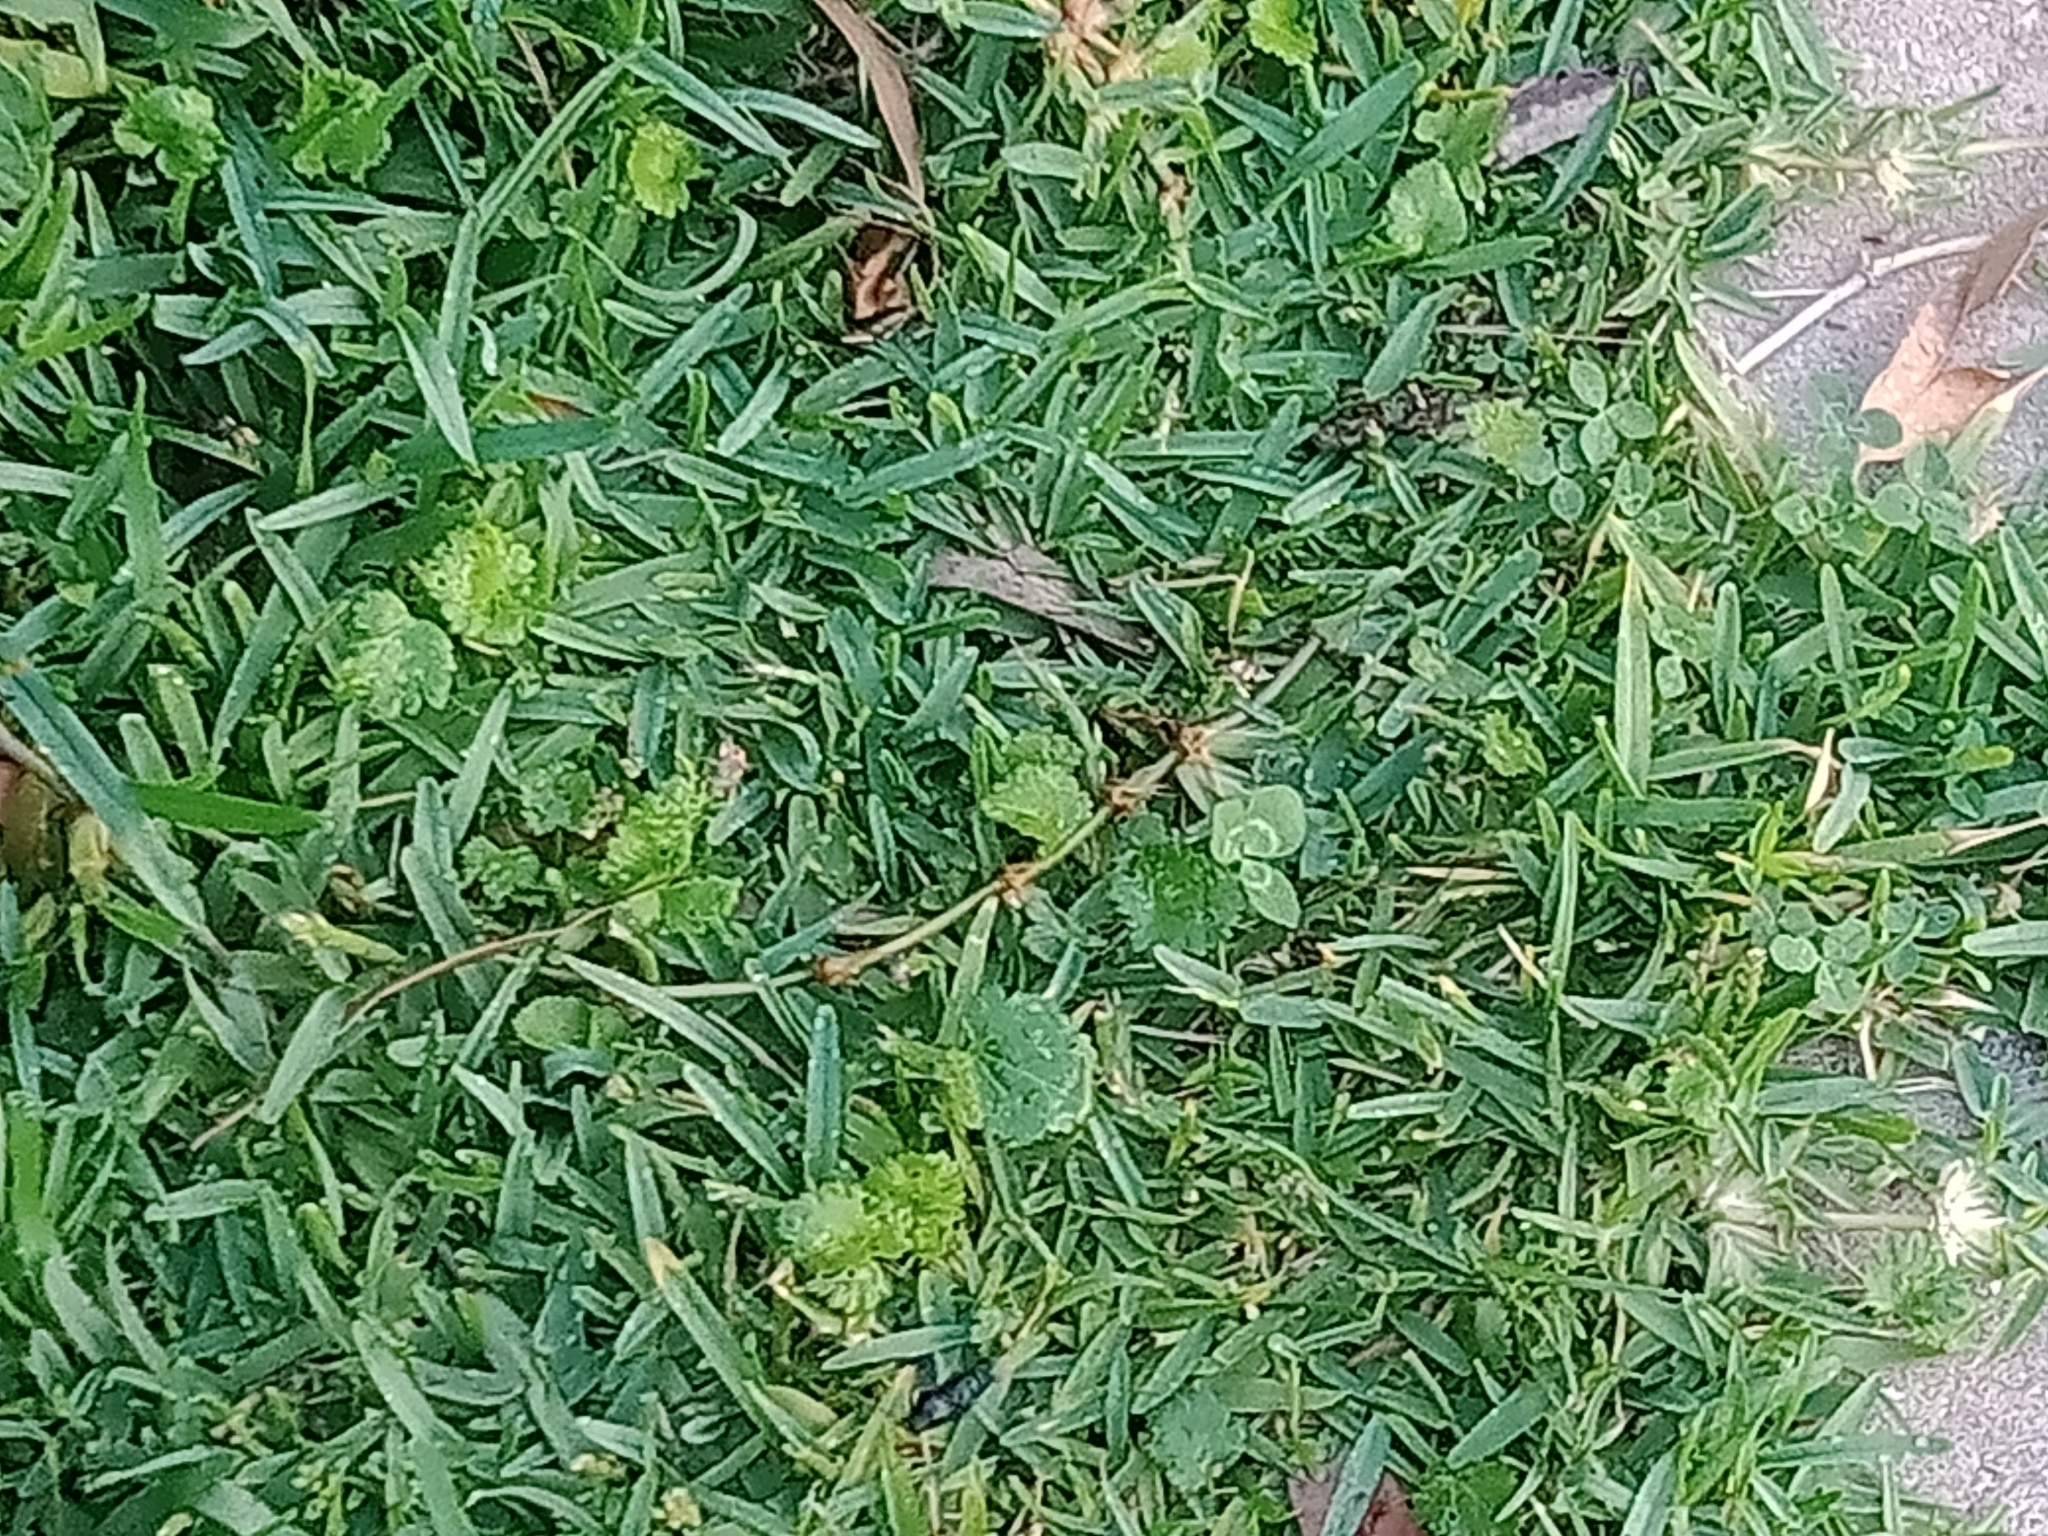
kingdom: Animalia
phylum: Arthropoda
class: Insecta
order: Hymenoptera
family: Scoliidae
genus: Austroscolia
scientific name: Austroscolia
